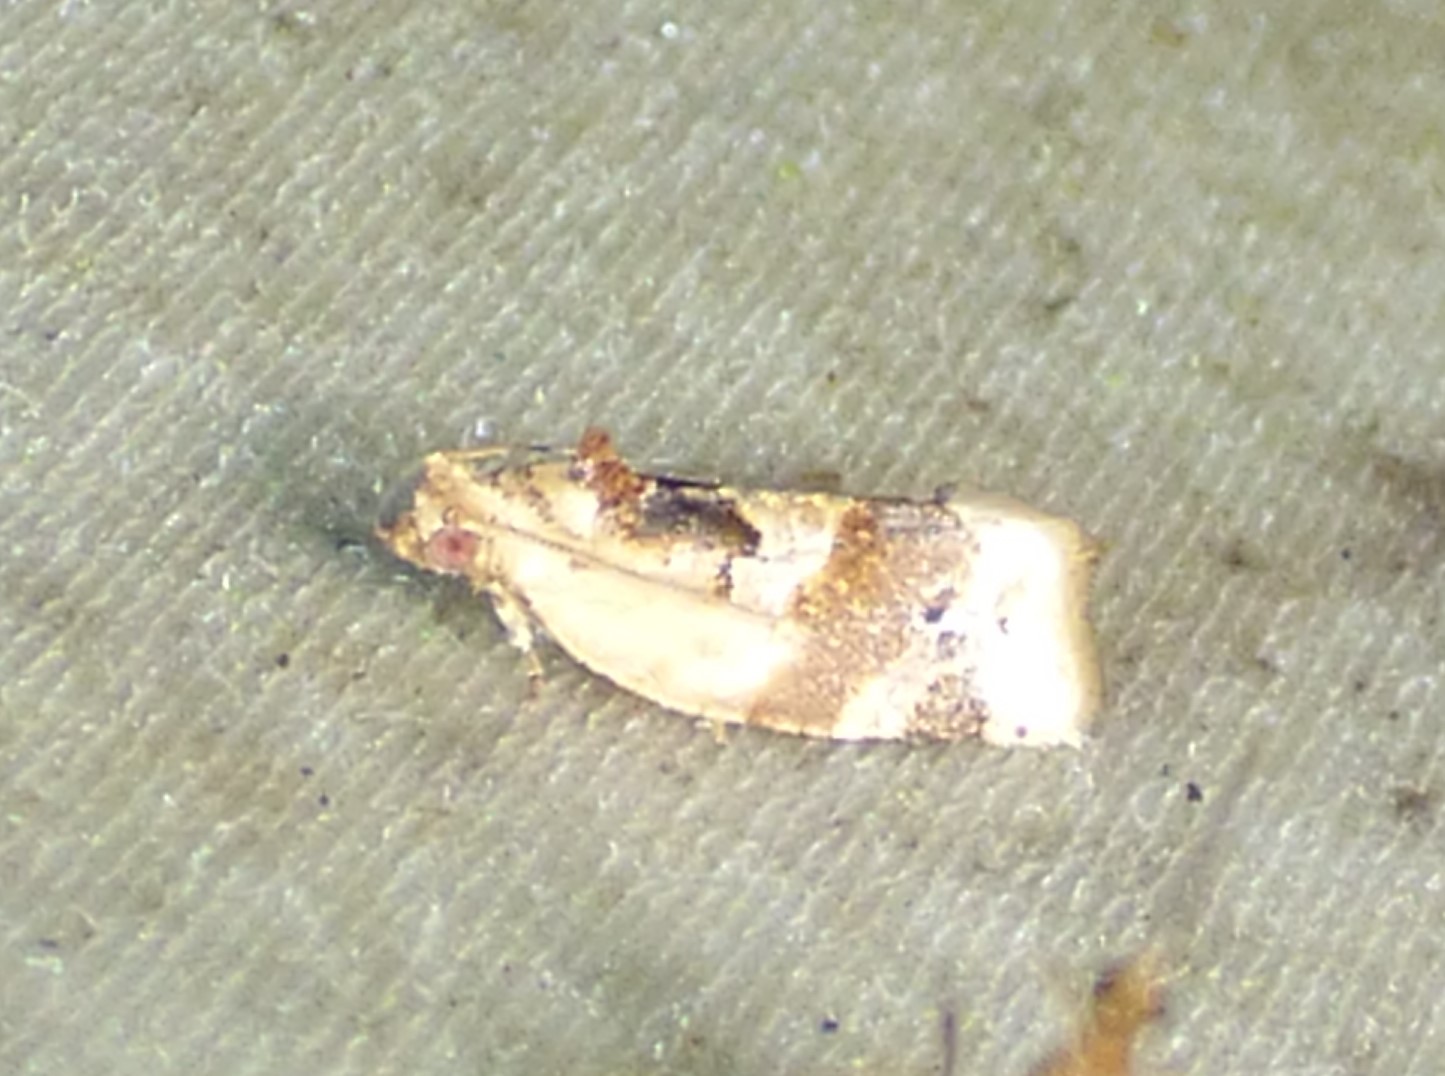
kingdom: Animalia
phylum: Arthropoda
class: Insecta
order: Lepidoptera
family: Tortricidae
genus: Argyrotaenia
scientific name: Argyrotaenia velutinana
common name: Red-banded leafroller moth
